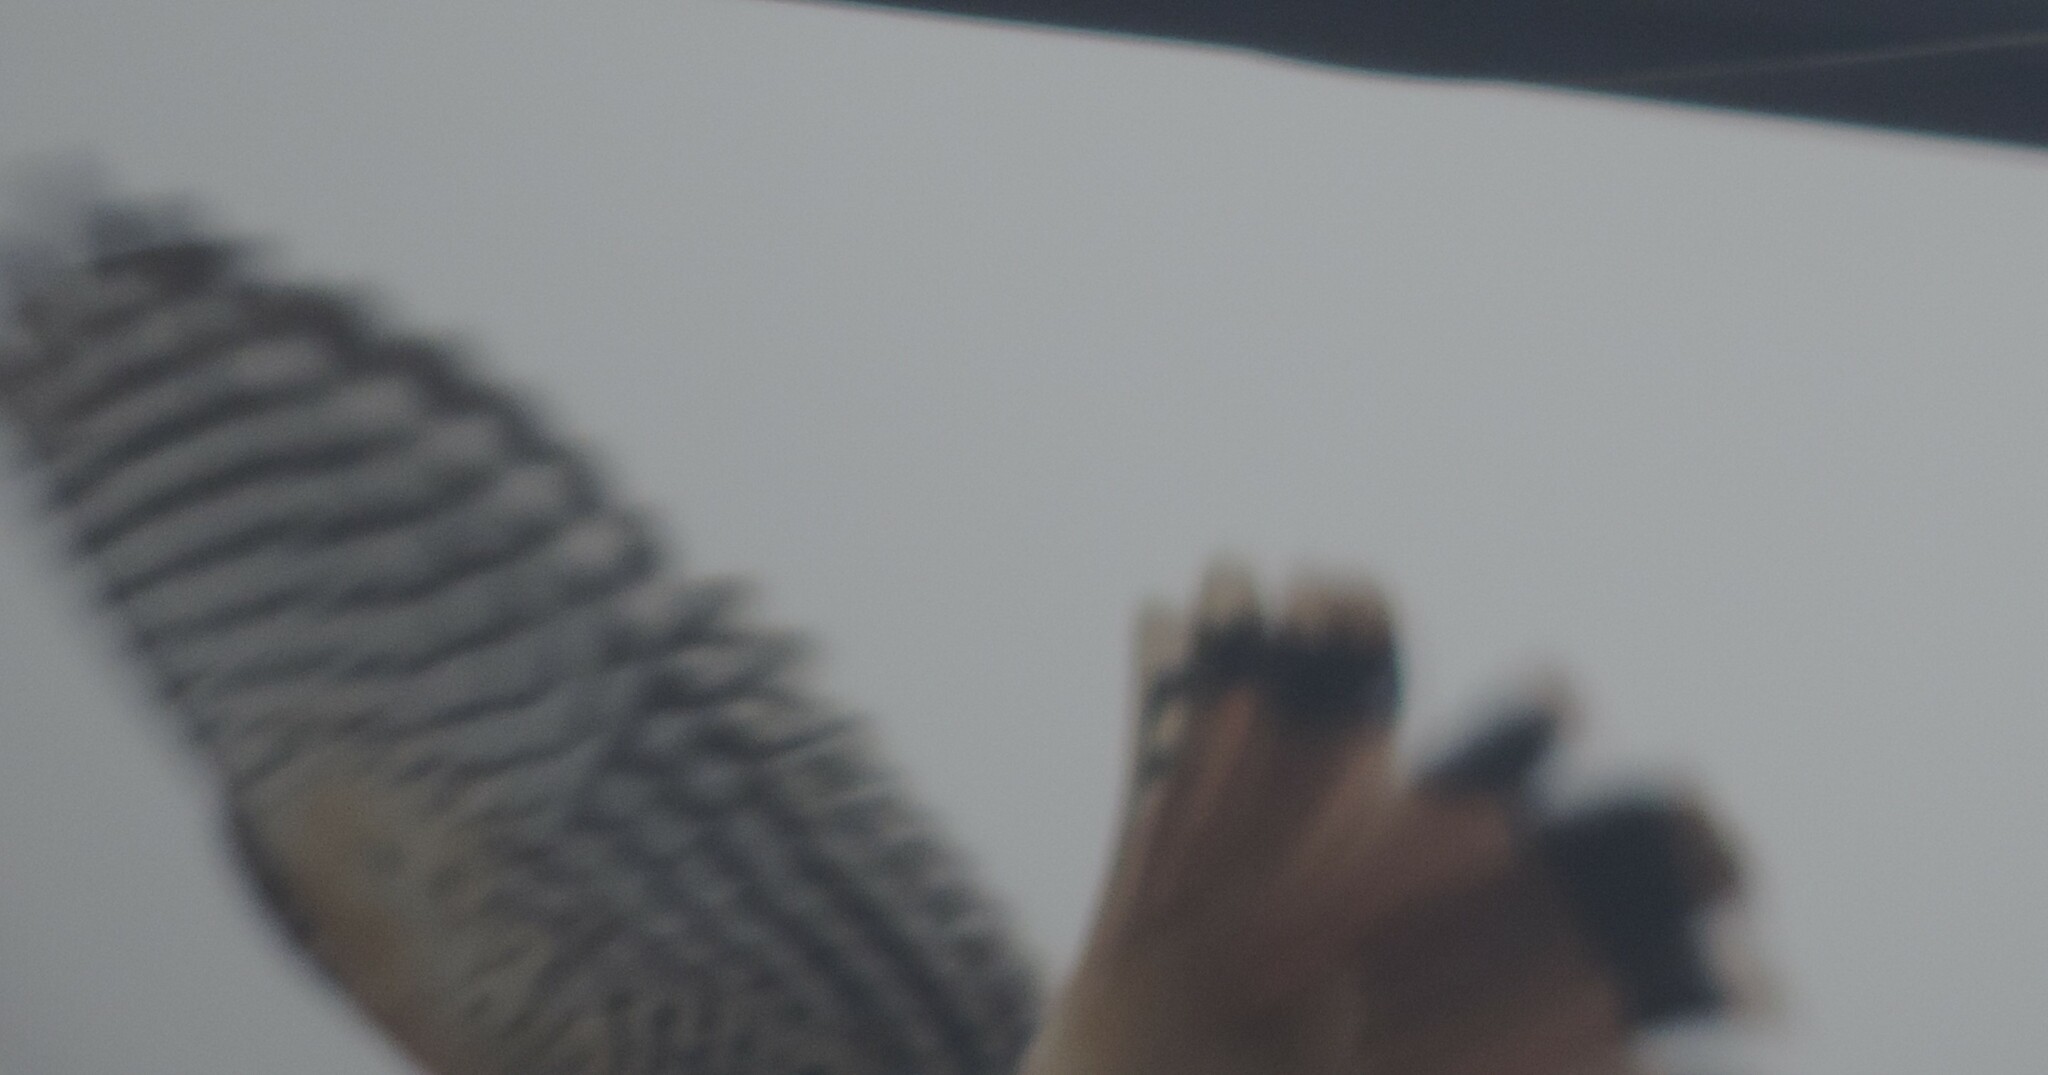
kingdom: Animalia
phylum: Chordata
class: Aves
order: Falconiformes
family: Falconidae
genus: Falco
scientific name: Falco sparverius
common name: American kestrel
